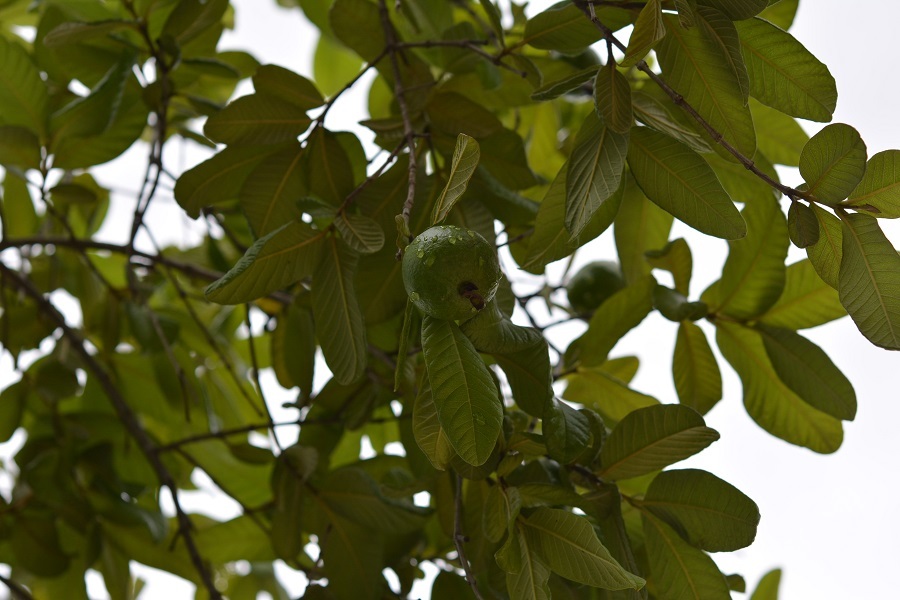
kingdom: Plantae
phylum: Tracheophyta
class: Magnoliopsida
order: Myrtales
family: Myrtaceae
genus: Psidium
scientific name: Psidium guajava
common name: Guava
